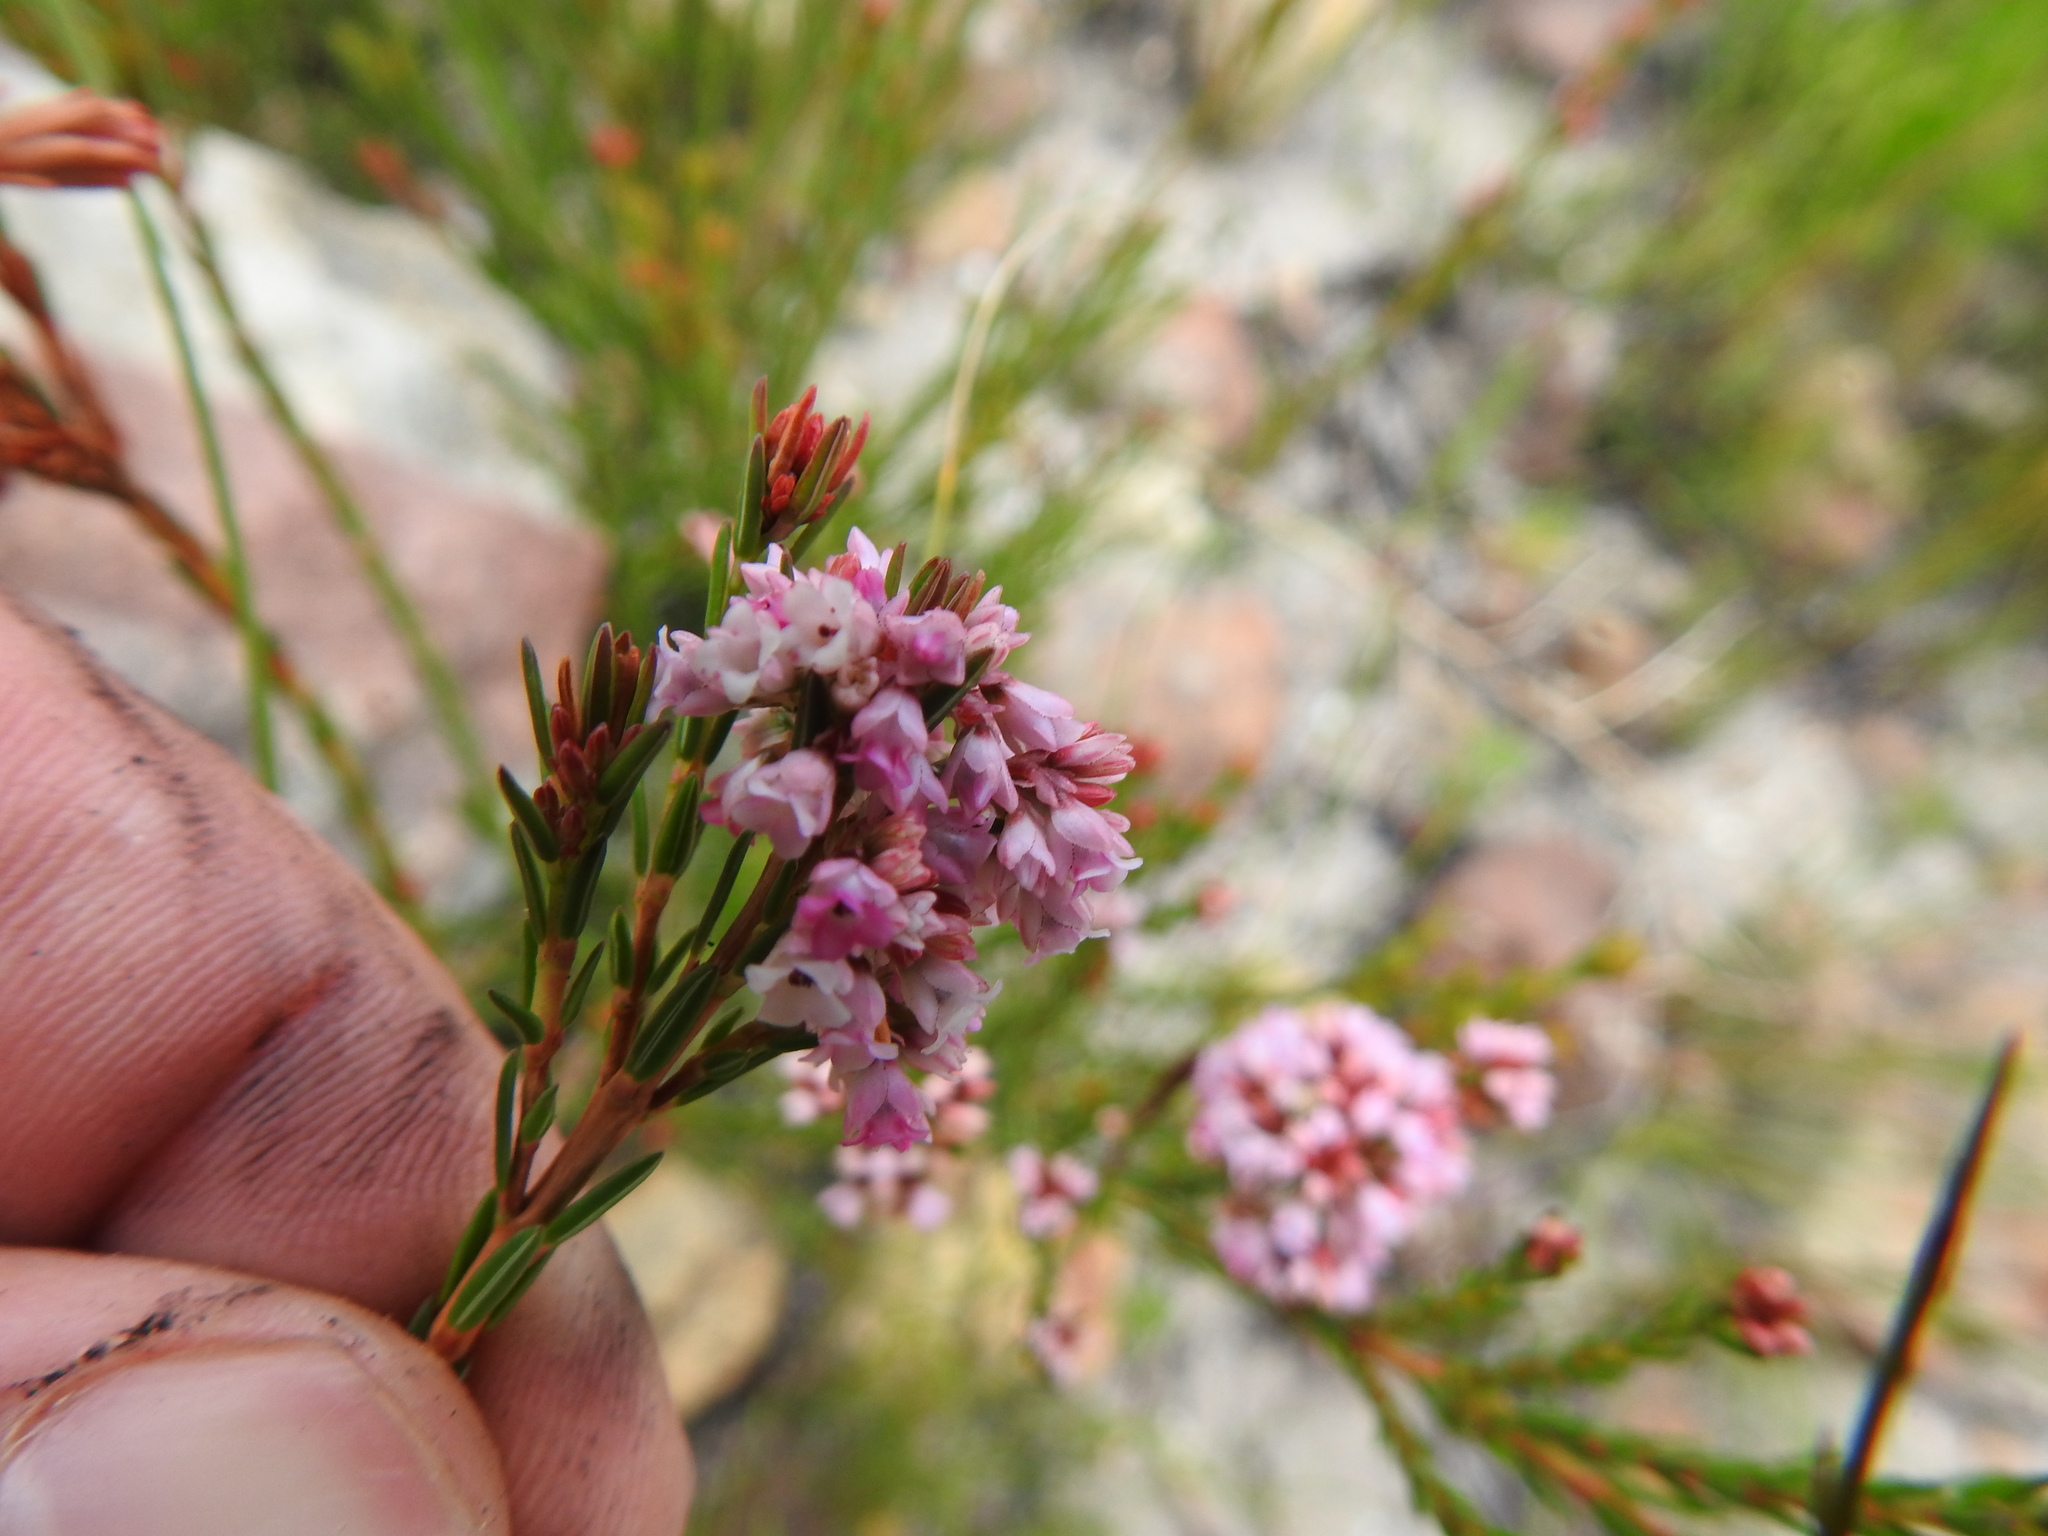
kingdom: Plantae
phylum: Tracheophyta
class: Magnoliopsida
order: Ericales
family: Ericaceae
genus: Erica
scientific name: Erica articularis
